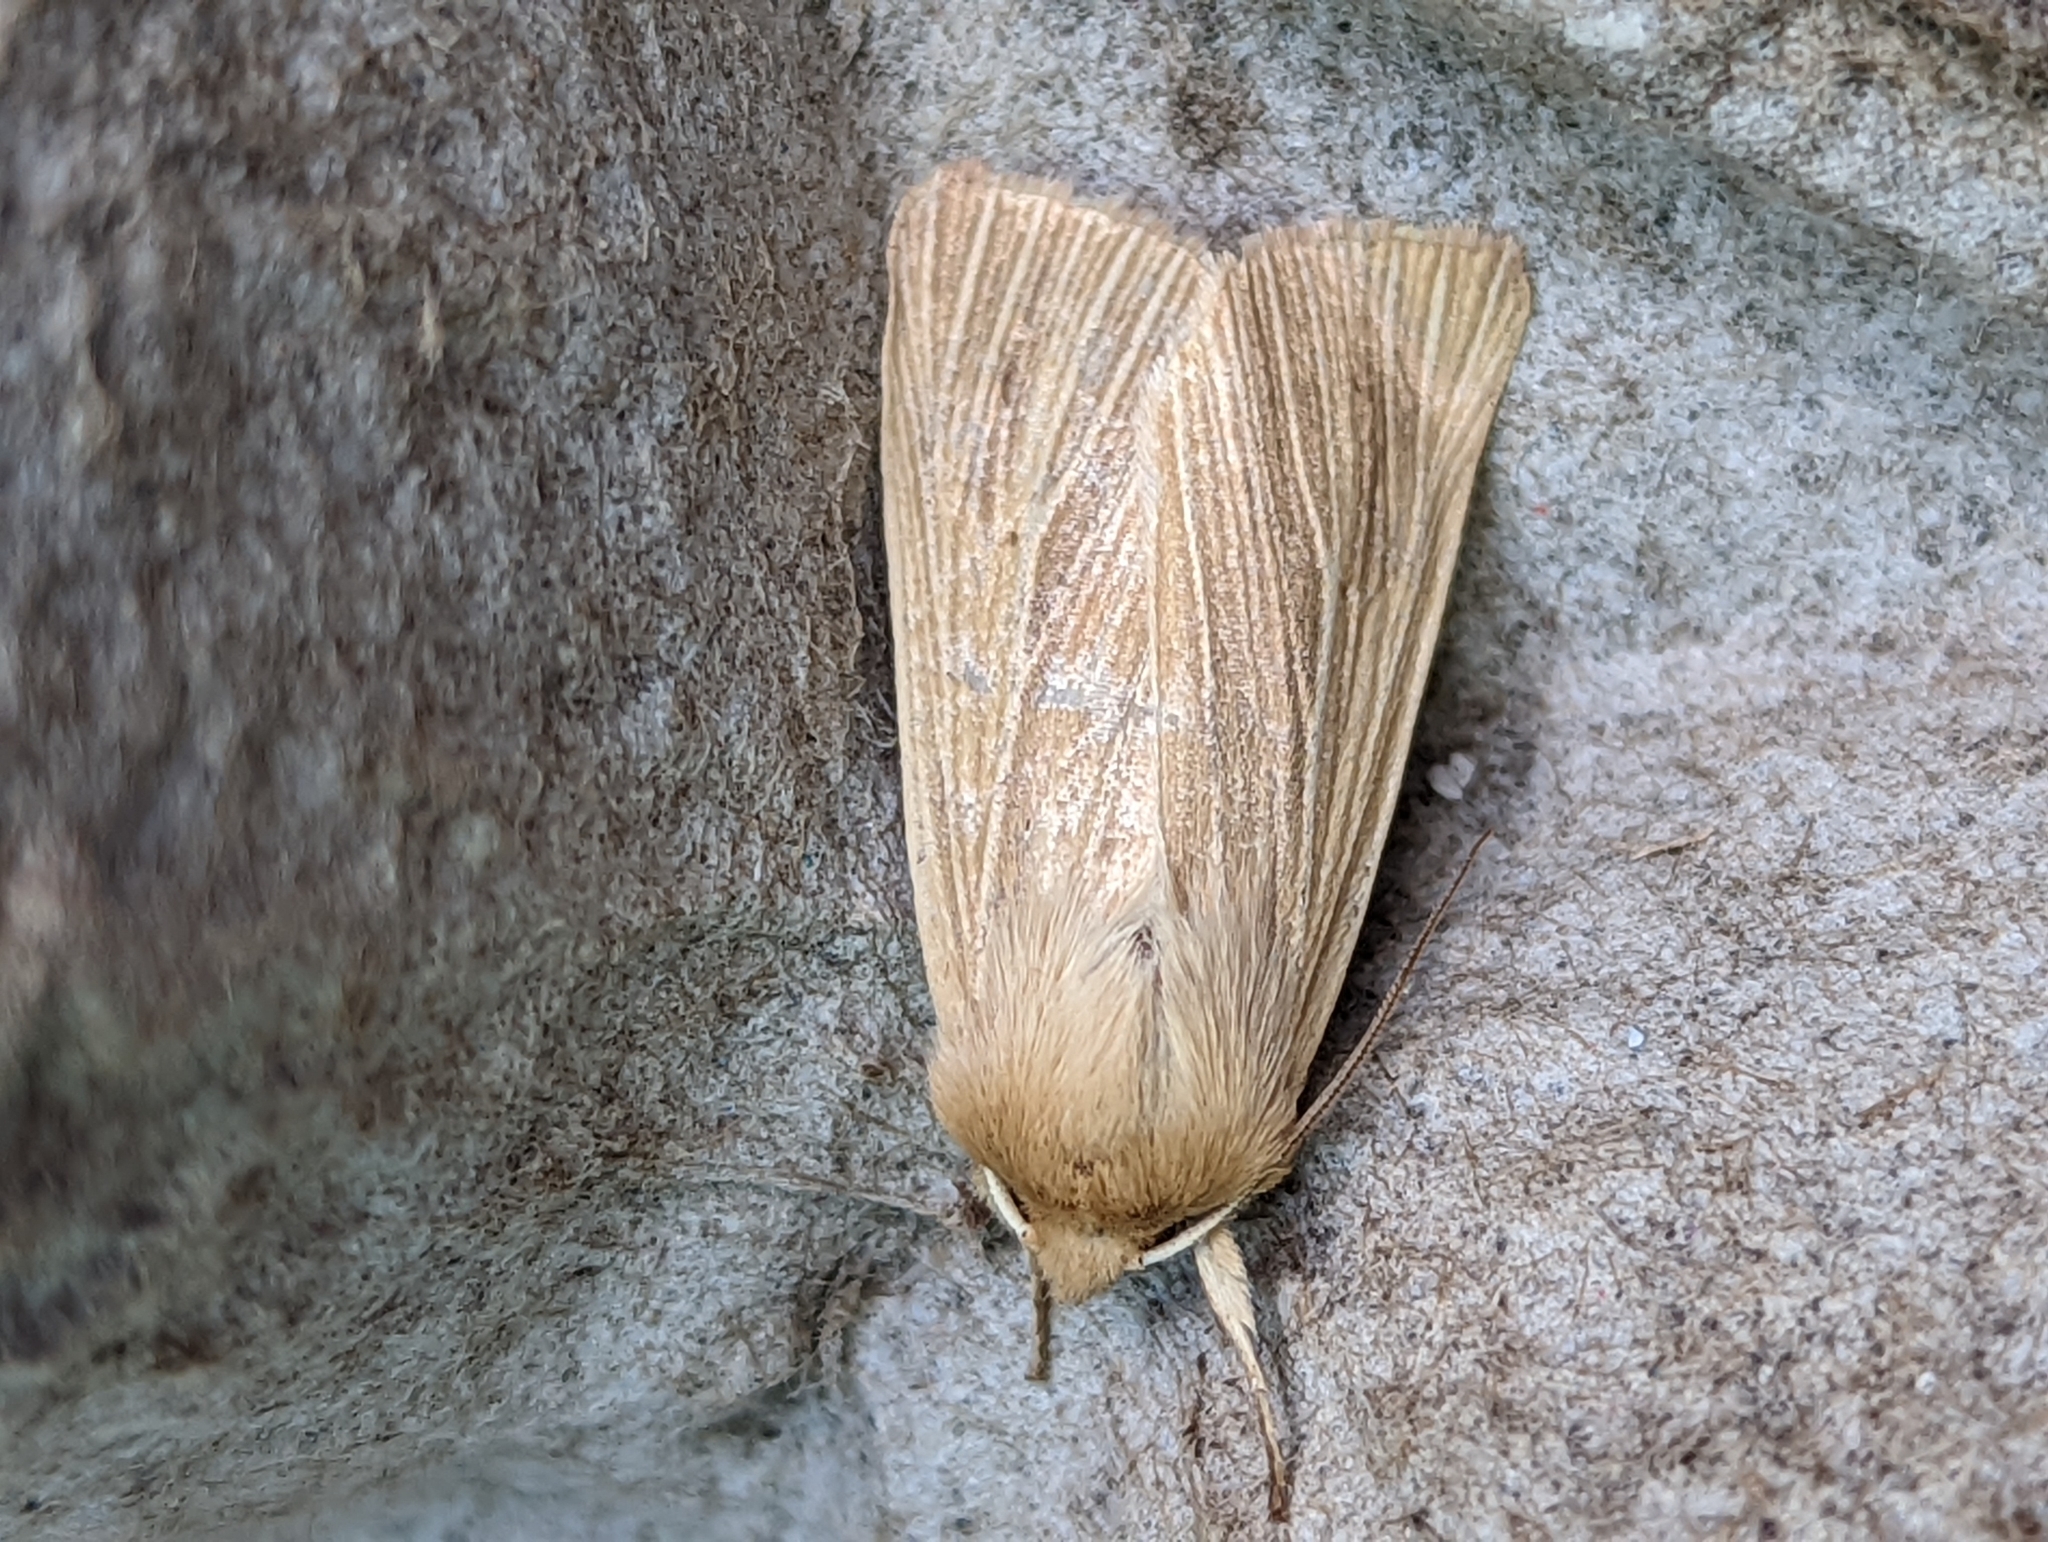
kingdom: Animalia
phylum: Arthropoda
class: Insecta
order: Lepidoptera
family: Noctuidae
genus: Mythimna
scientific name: Mythimna pallens
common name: Common wainscot
